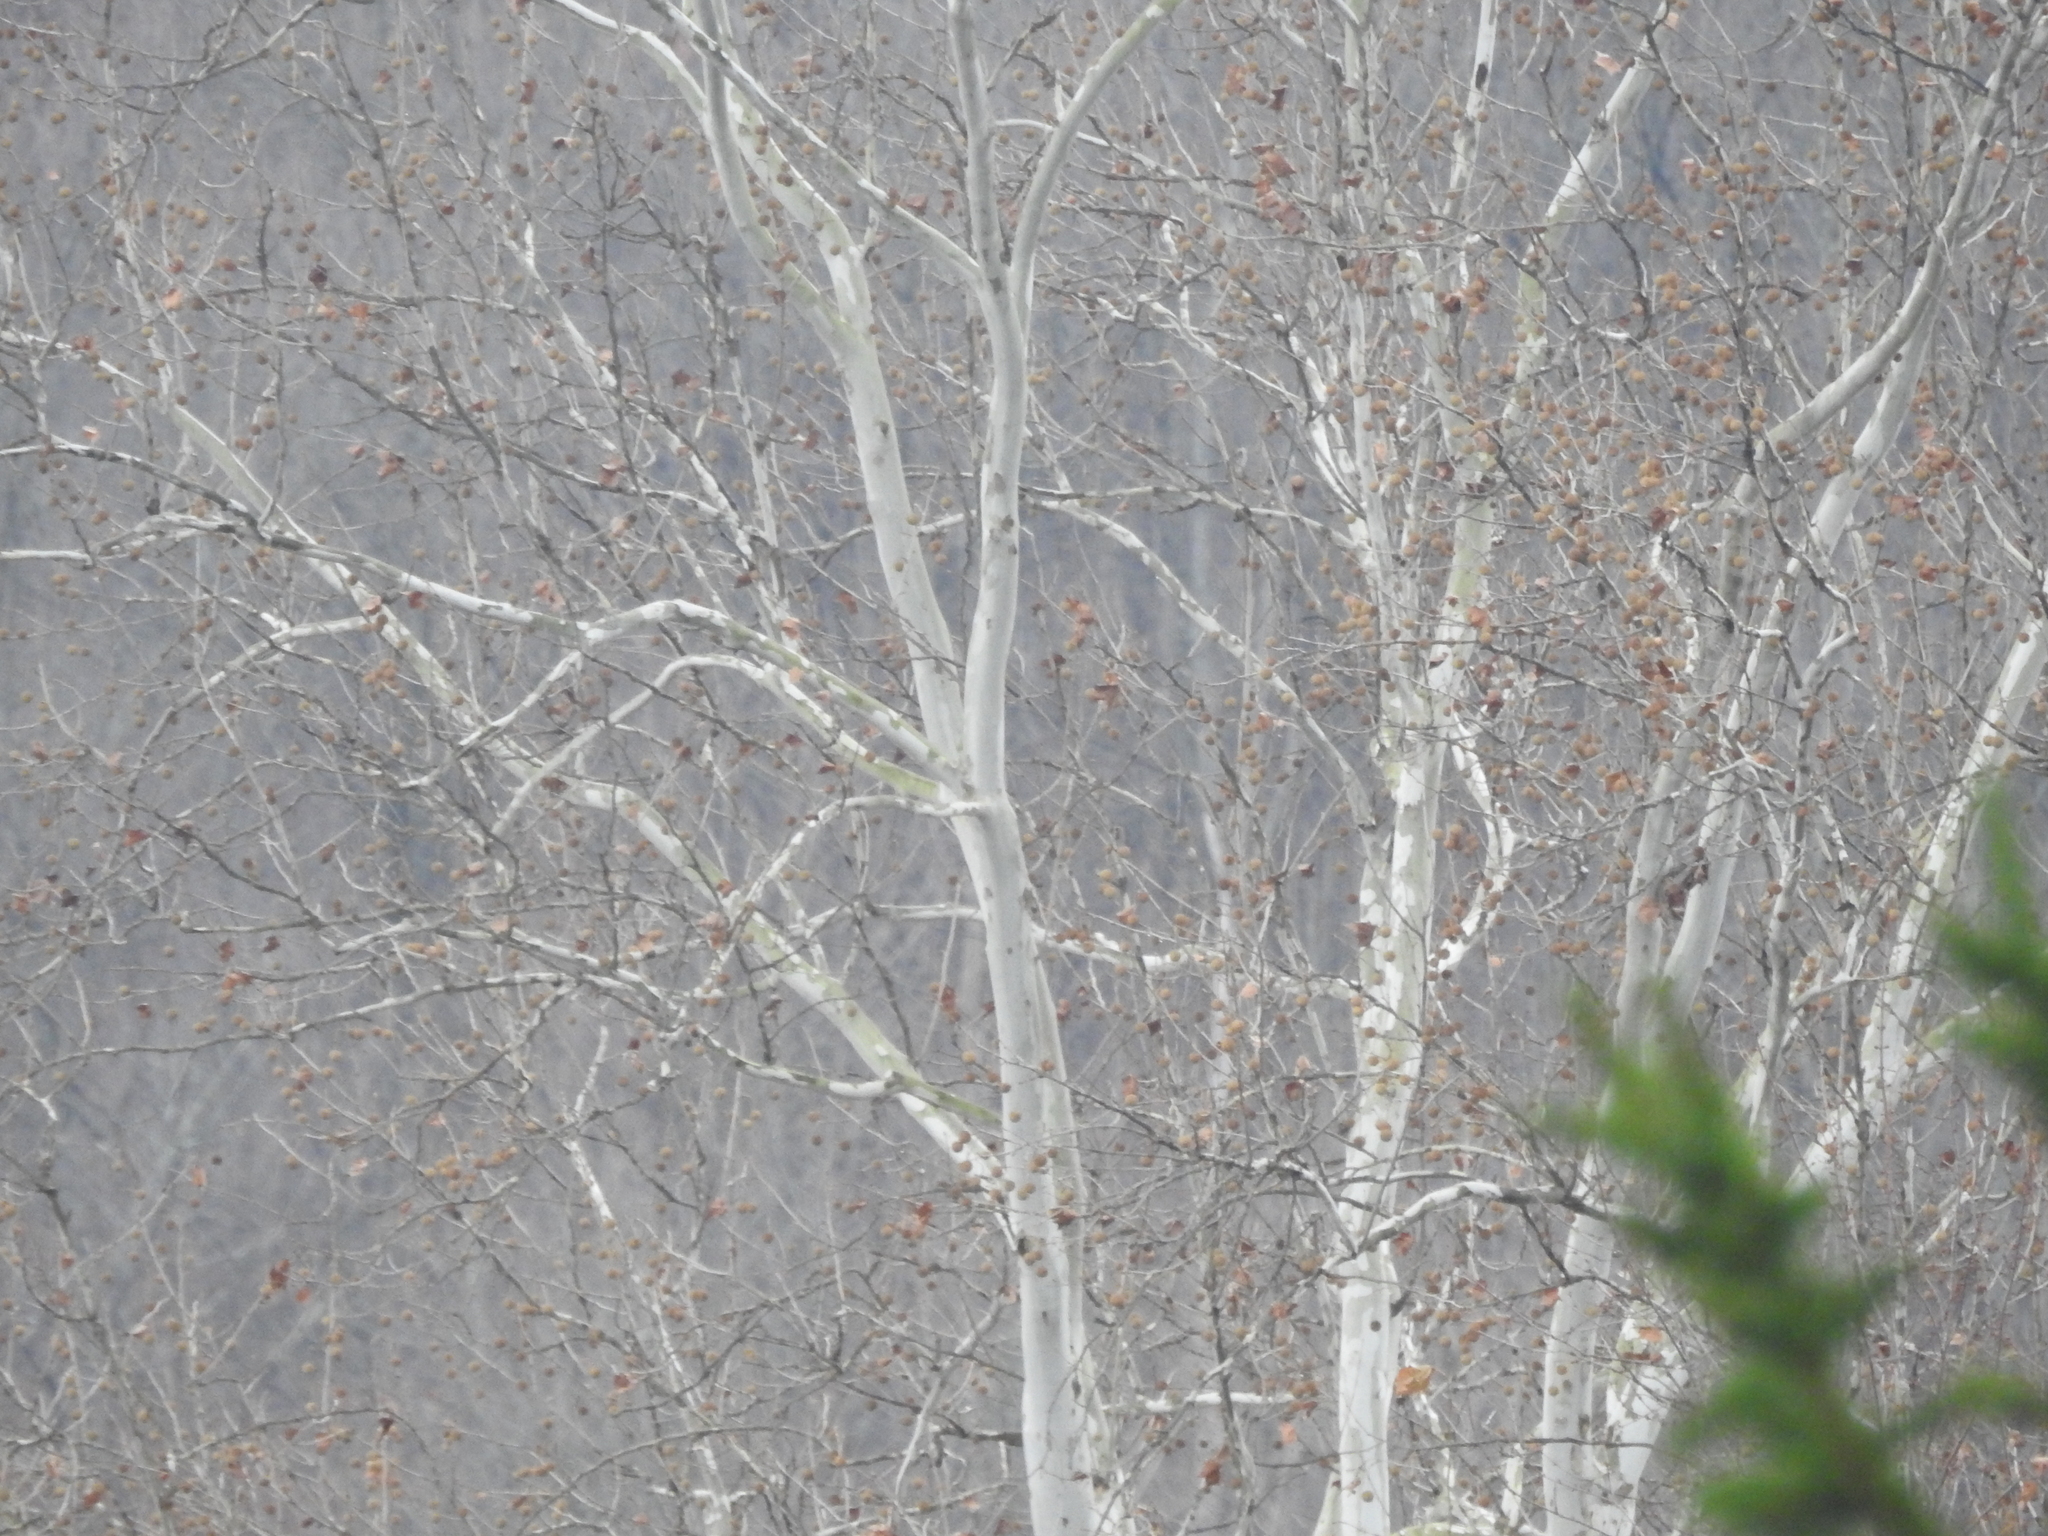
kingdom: Plantae
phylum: Tracheophyta
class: Magnoliopsida
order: Proteales
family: Platanaceae
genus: Platanus
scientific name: Platanus occidentalis
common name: American sycamore
